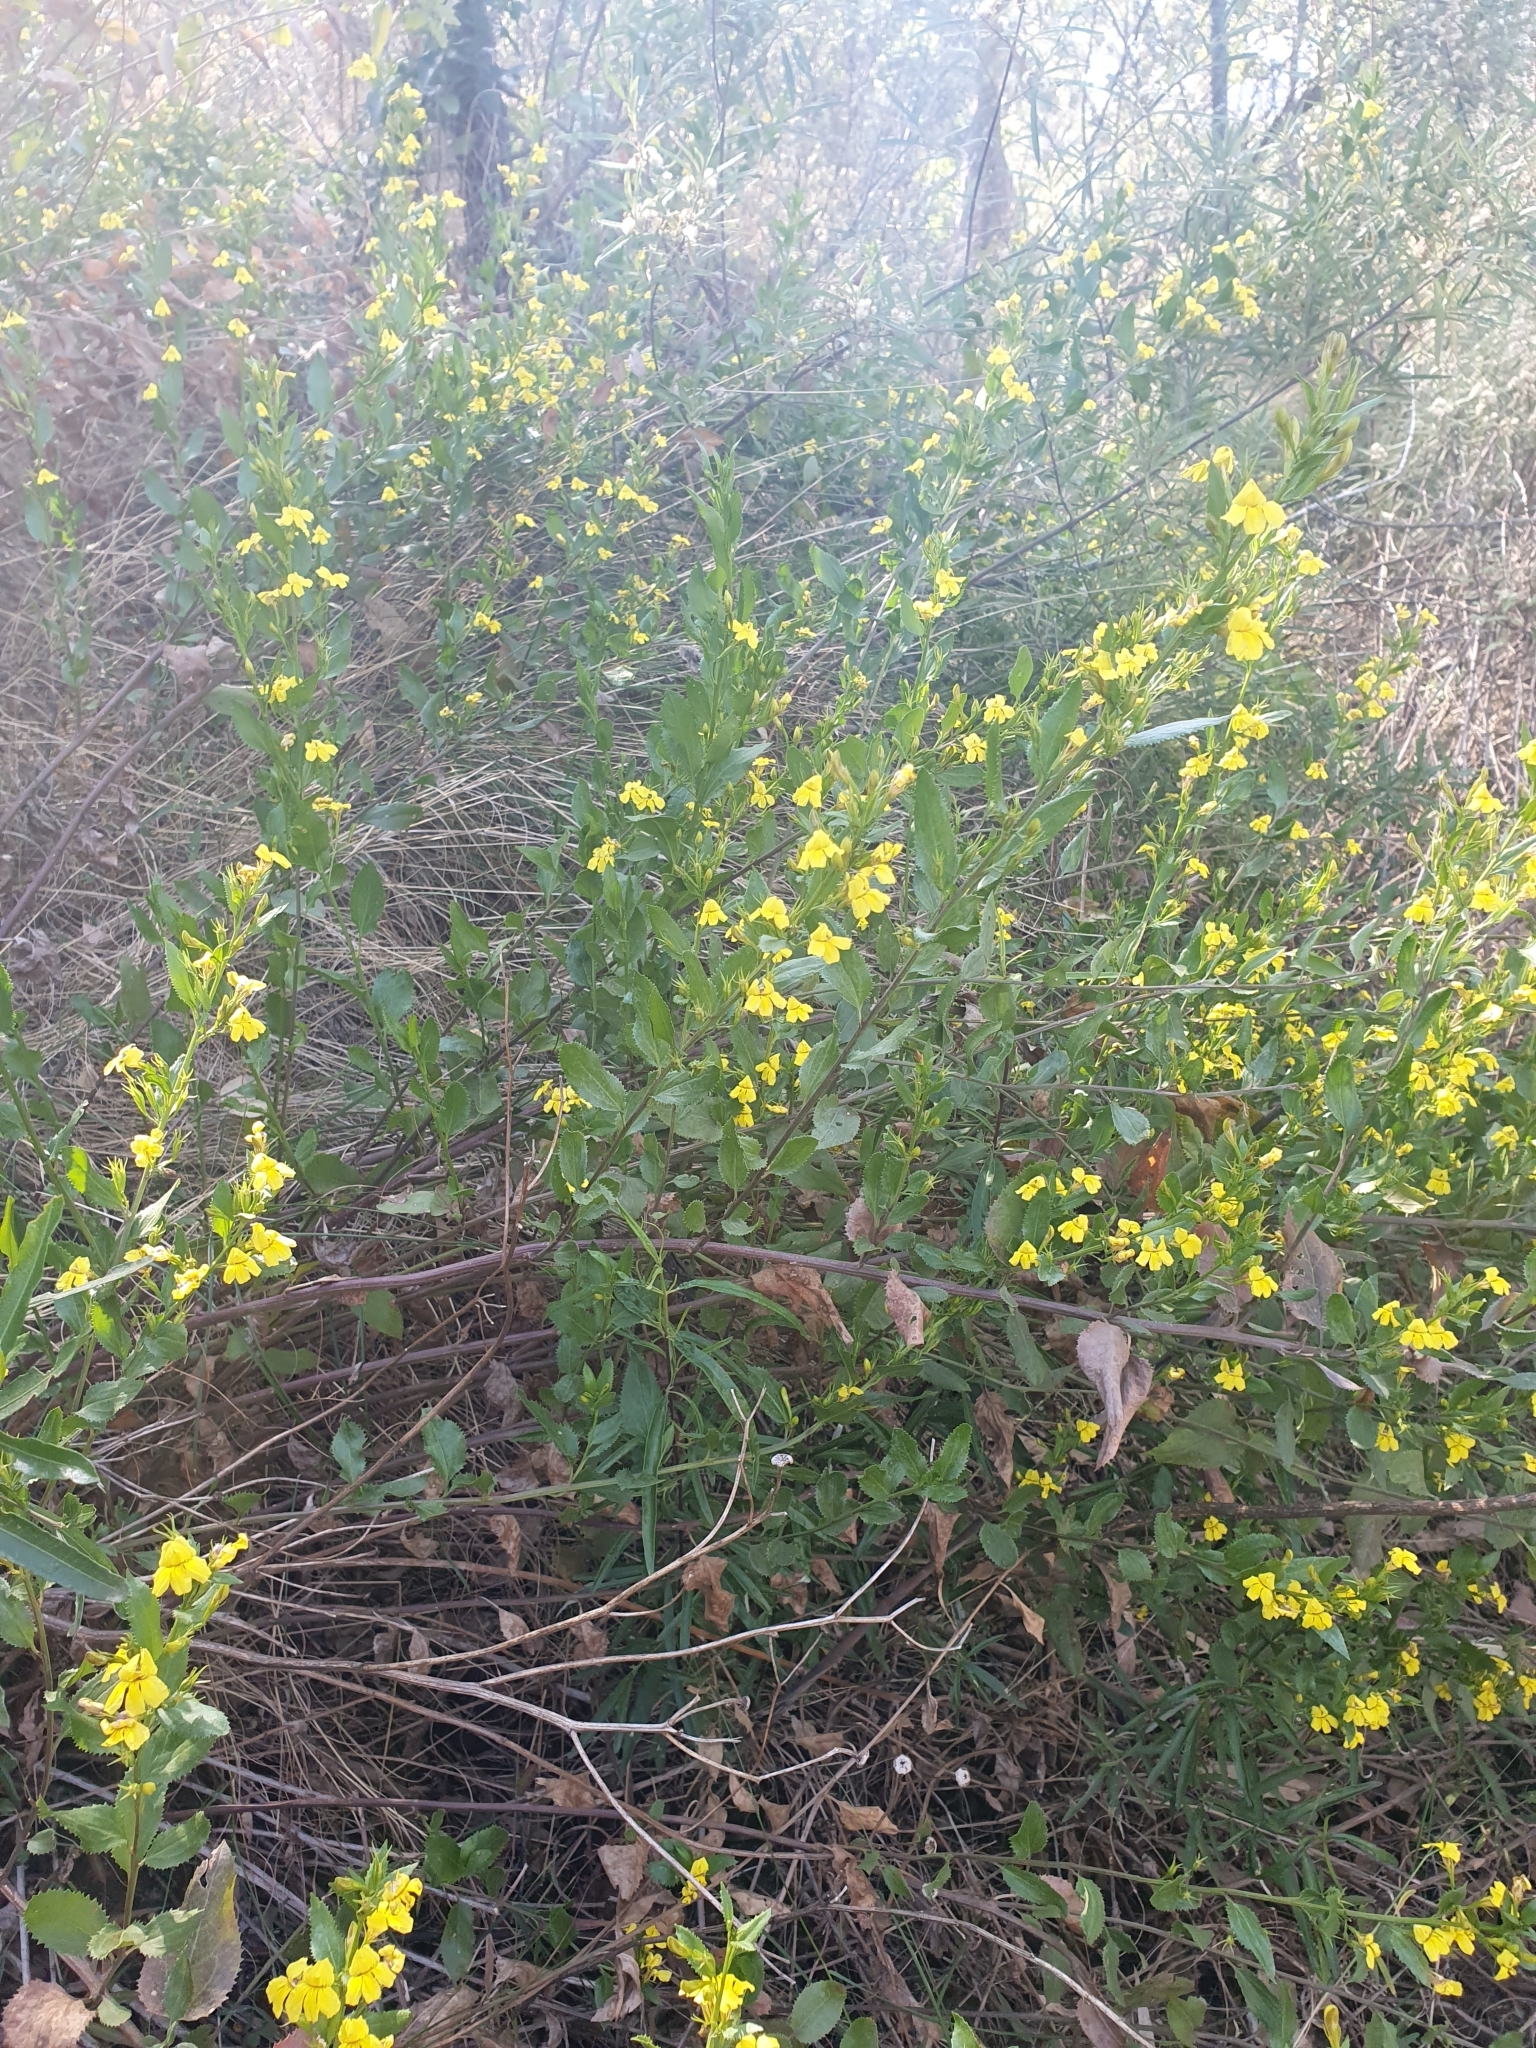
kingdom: Plantae
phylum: Tracheophyta
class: Magnoliopsida
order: Asterales
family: Goodeniaceae
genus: Goodenia
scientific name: Goodenia ovata
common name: Hop goodenia
